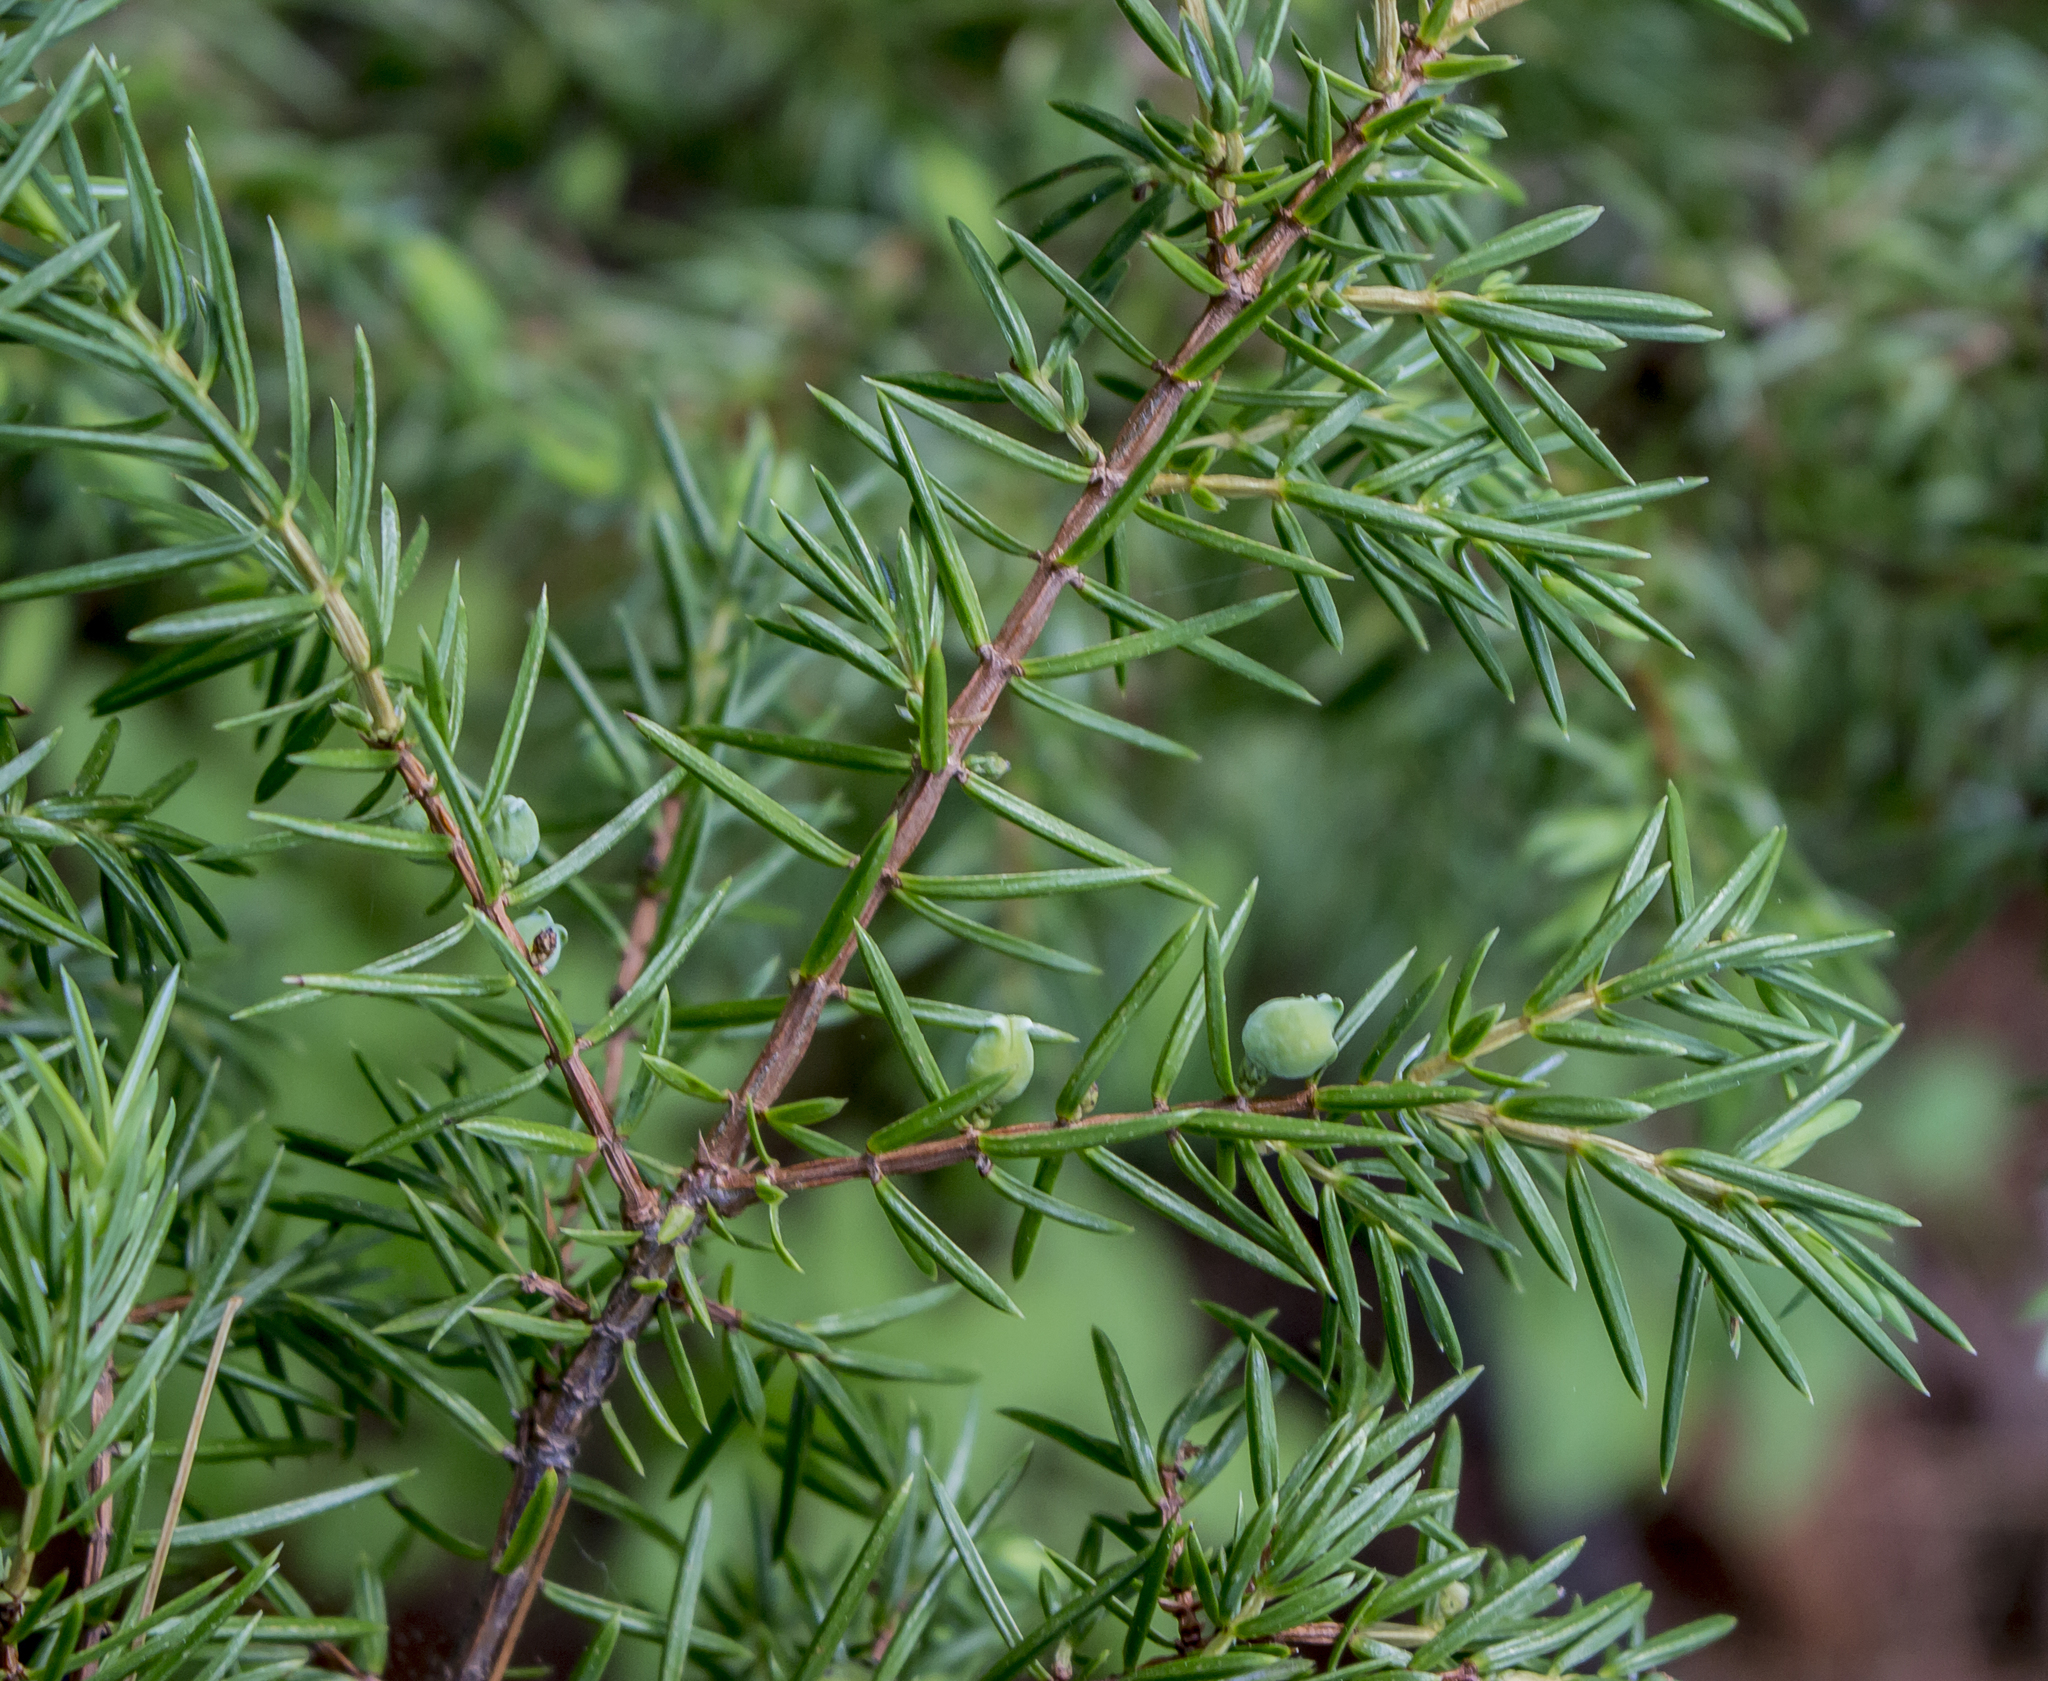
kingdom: Plantae
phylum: Tracheophyta
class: Pinopsida
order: Pinales
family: Cupressaceae
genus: Juniperus
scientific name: Juniperus communis
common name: Common juniper
